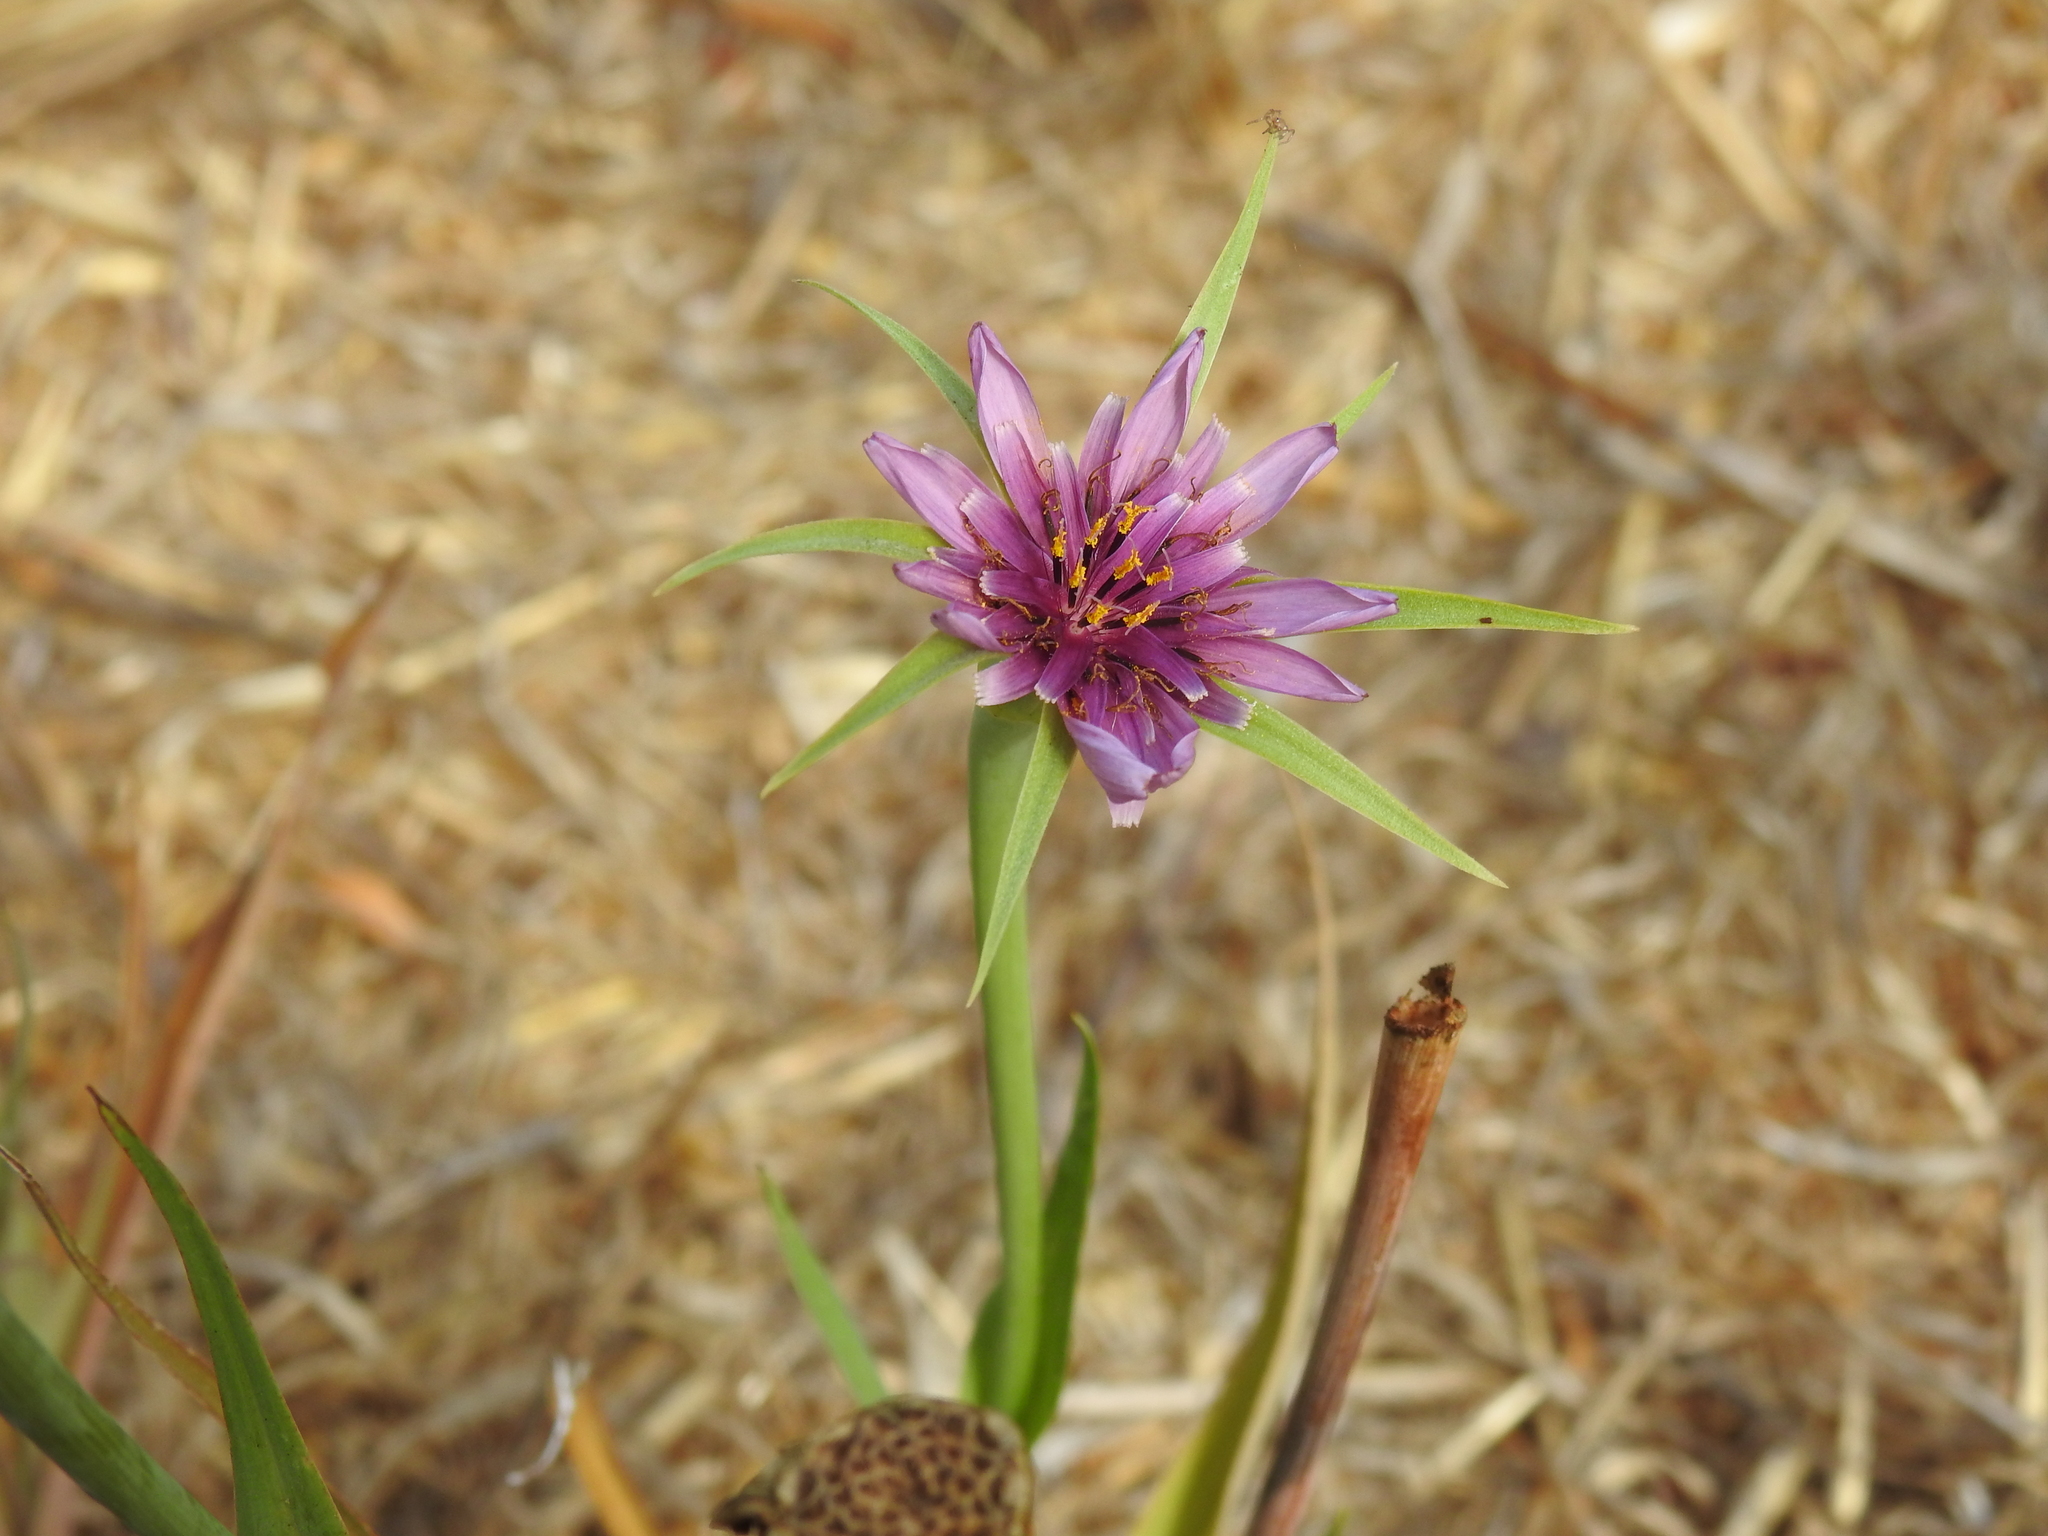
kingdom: Plantae
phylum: Tracheophyta
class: Magnoliopsida
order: Asterales
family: Asteraceae
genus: Tragopogon
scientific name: Tragopogon porrifolius
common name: Salsify
